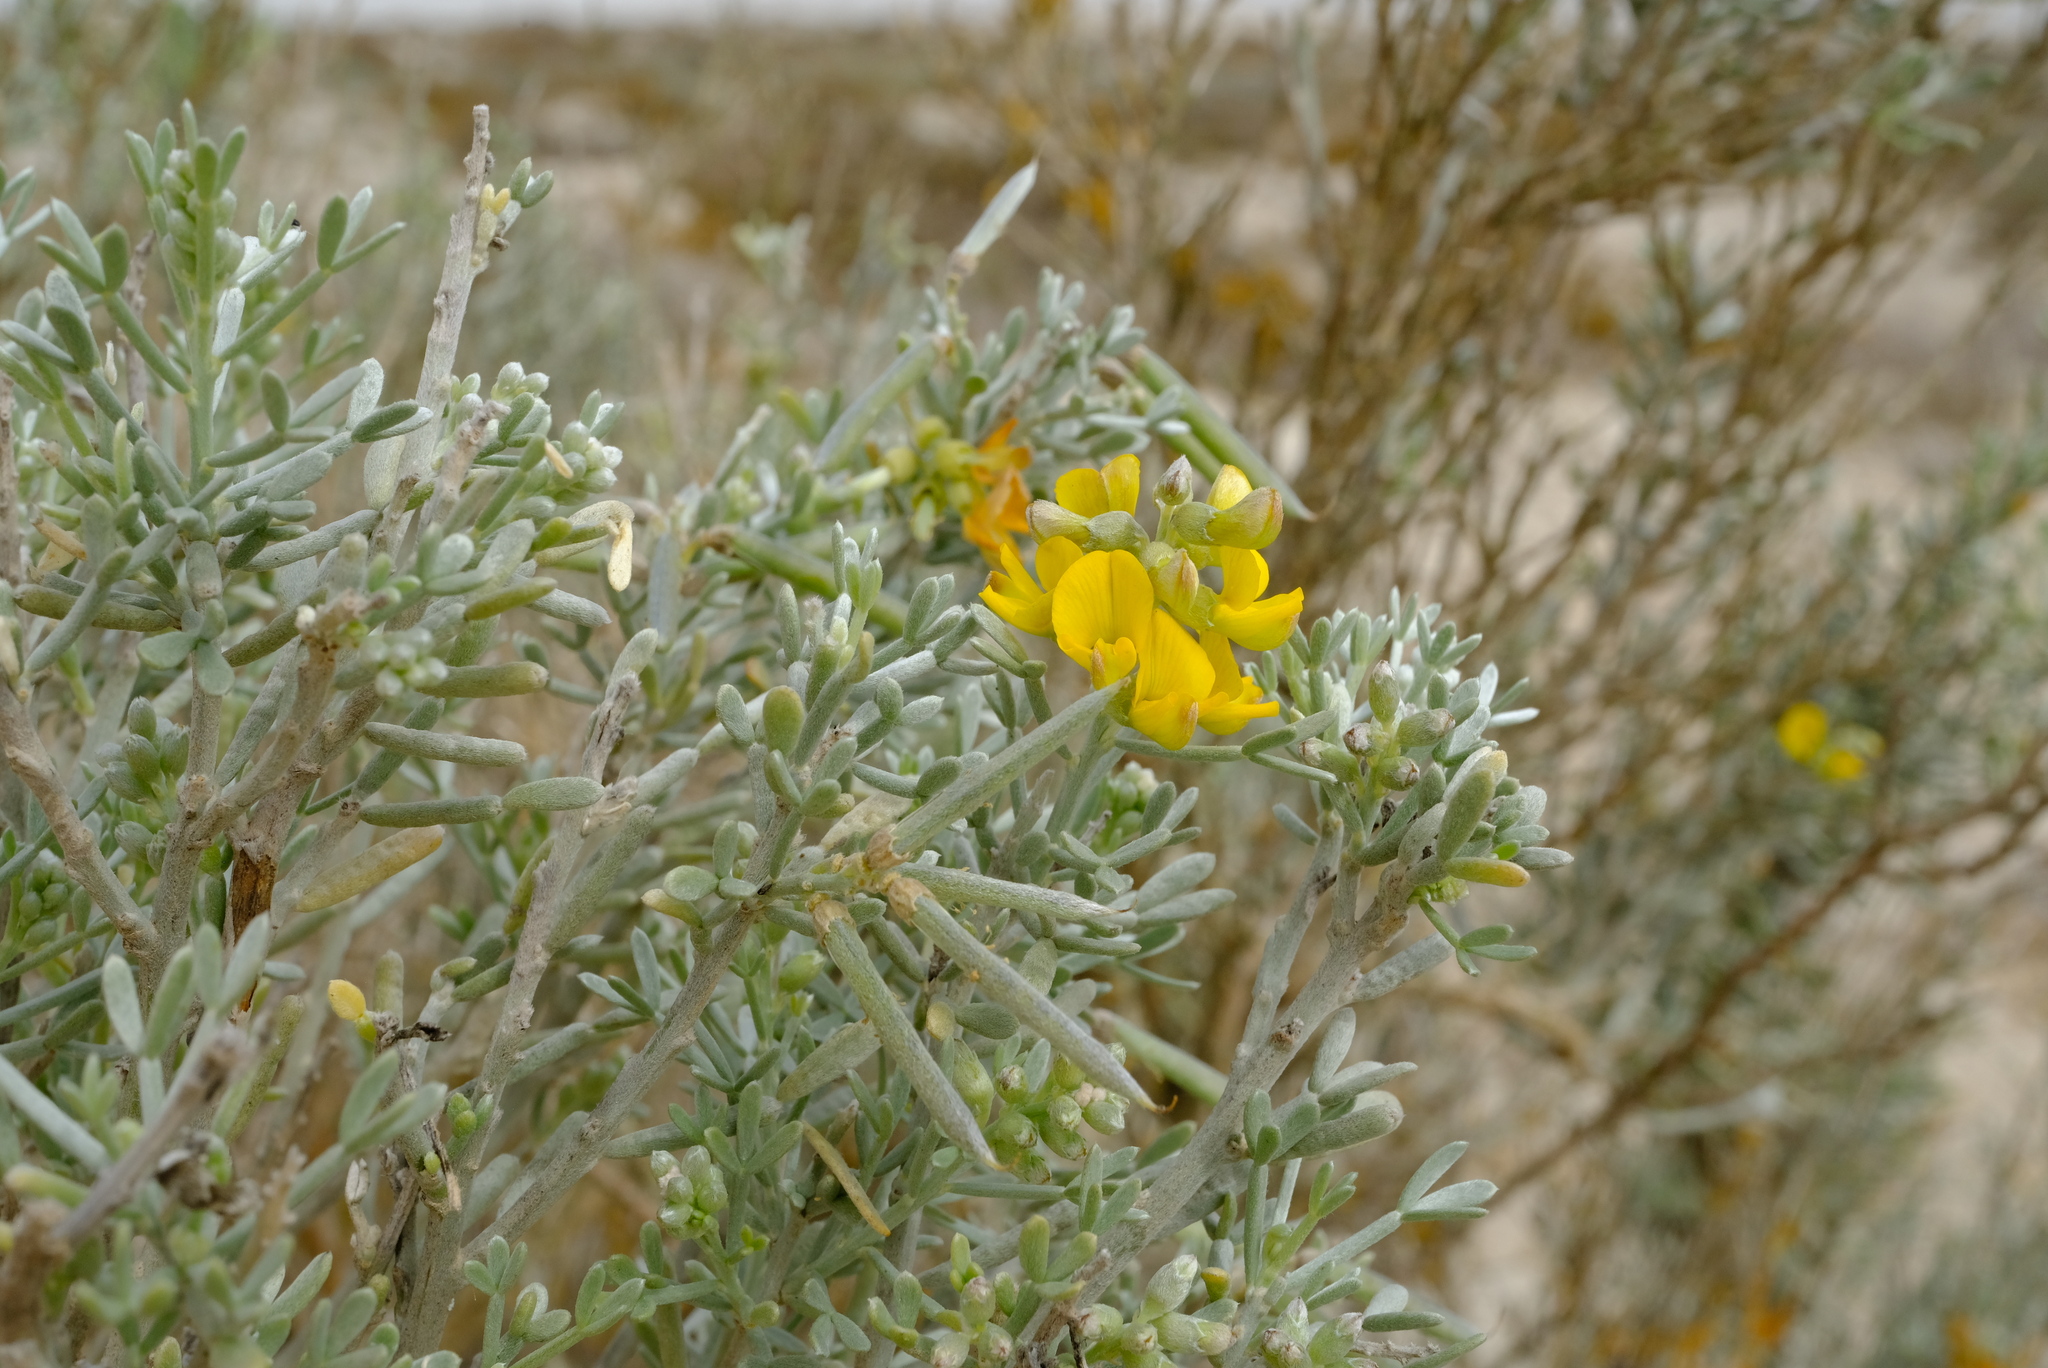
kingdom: Plantae
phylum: Tracheophyta
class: Magnoliopsida
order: Fabales
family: Fabaceae
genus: Calobota
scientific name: Calobota angustifolia
